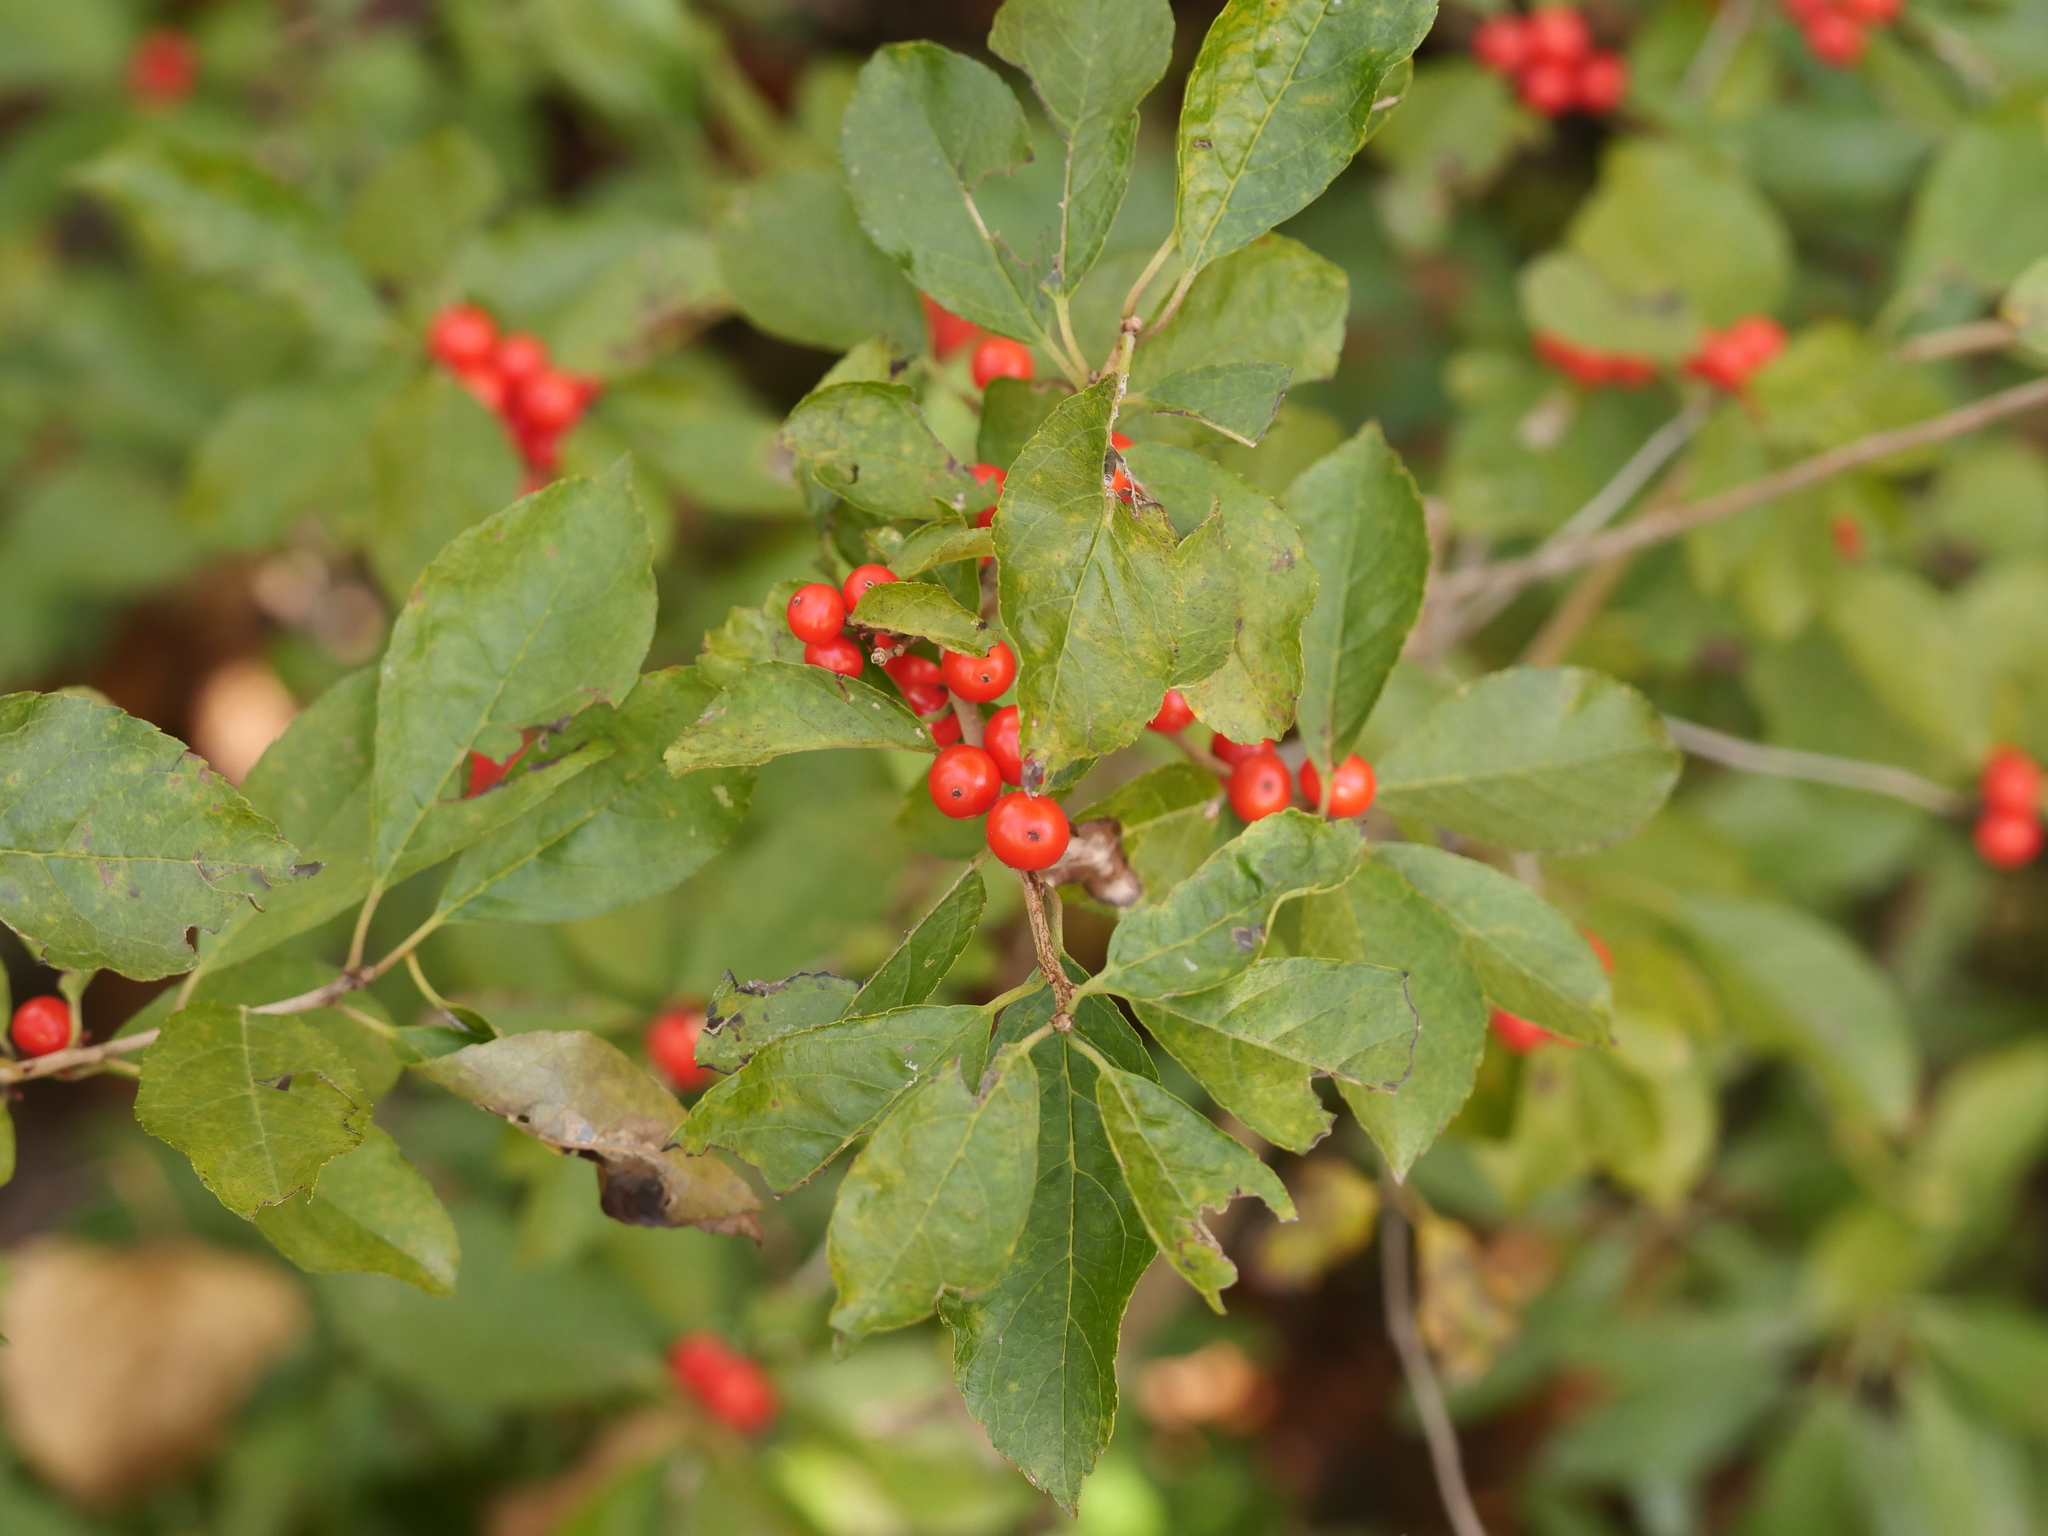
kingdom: Plantae
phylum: Tracheophyta
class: Magnoliopsida
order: Aquifoliales
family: Aquifoliaceae
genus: Ilex
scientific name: Ilex verticillata
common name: Virginia winterberry
